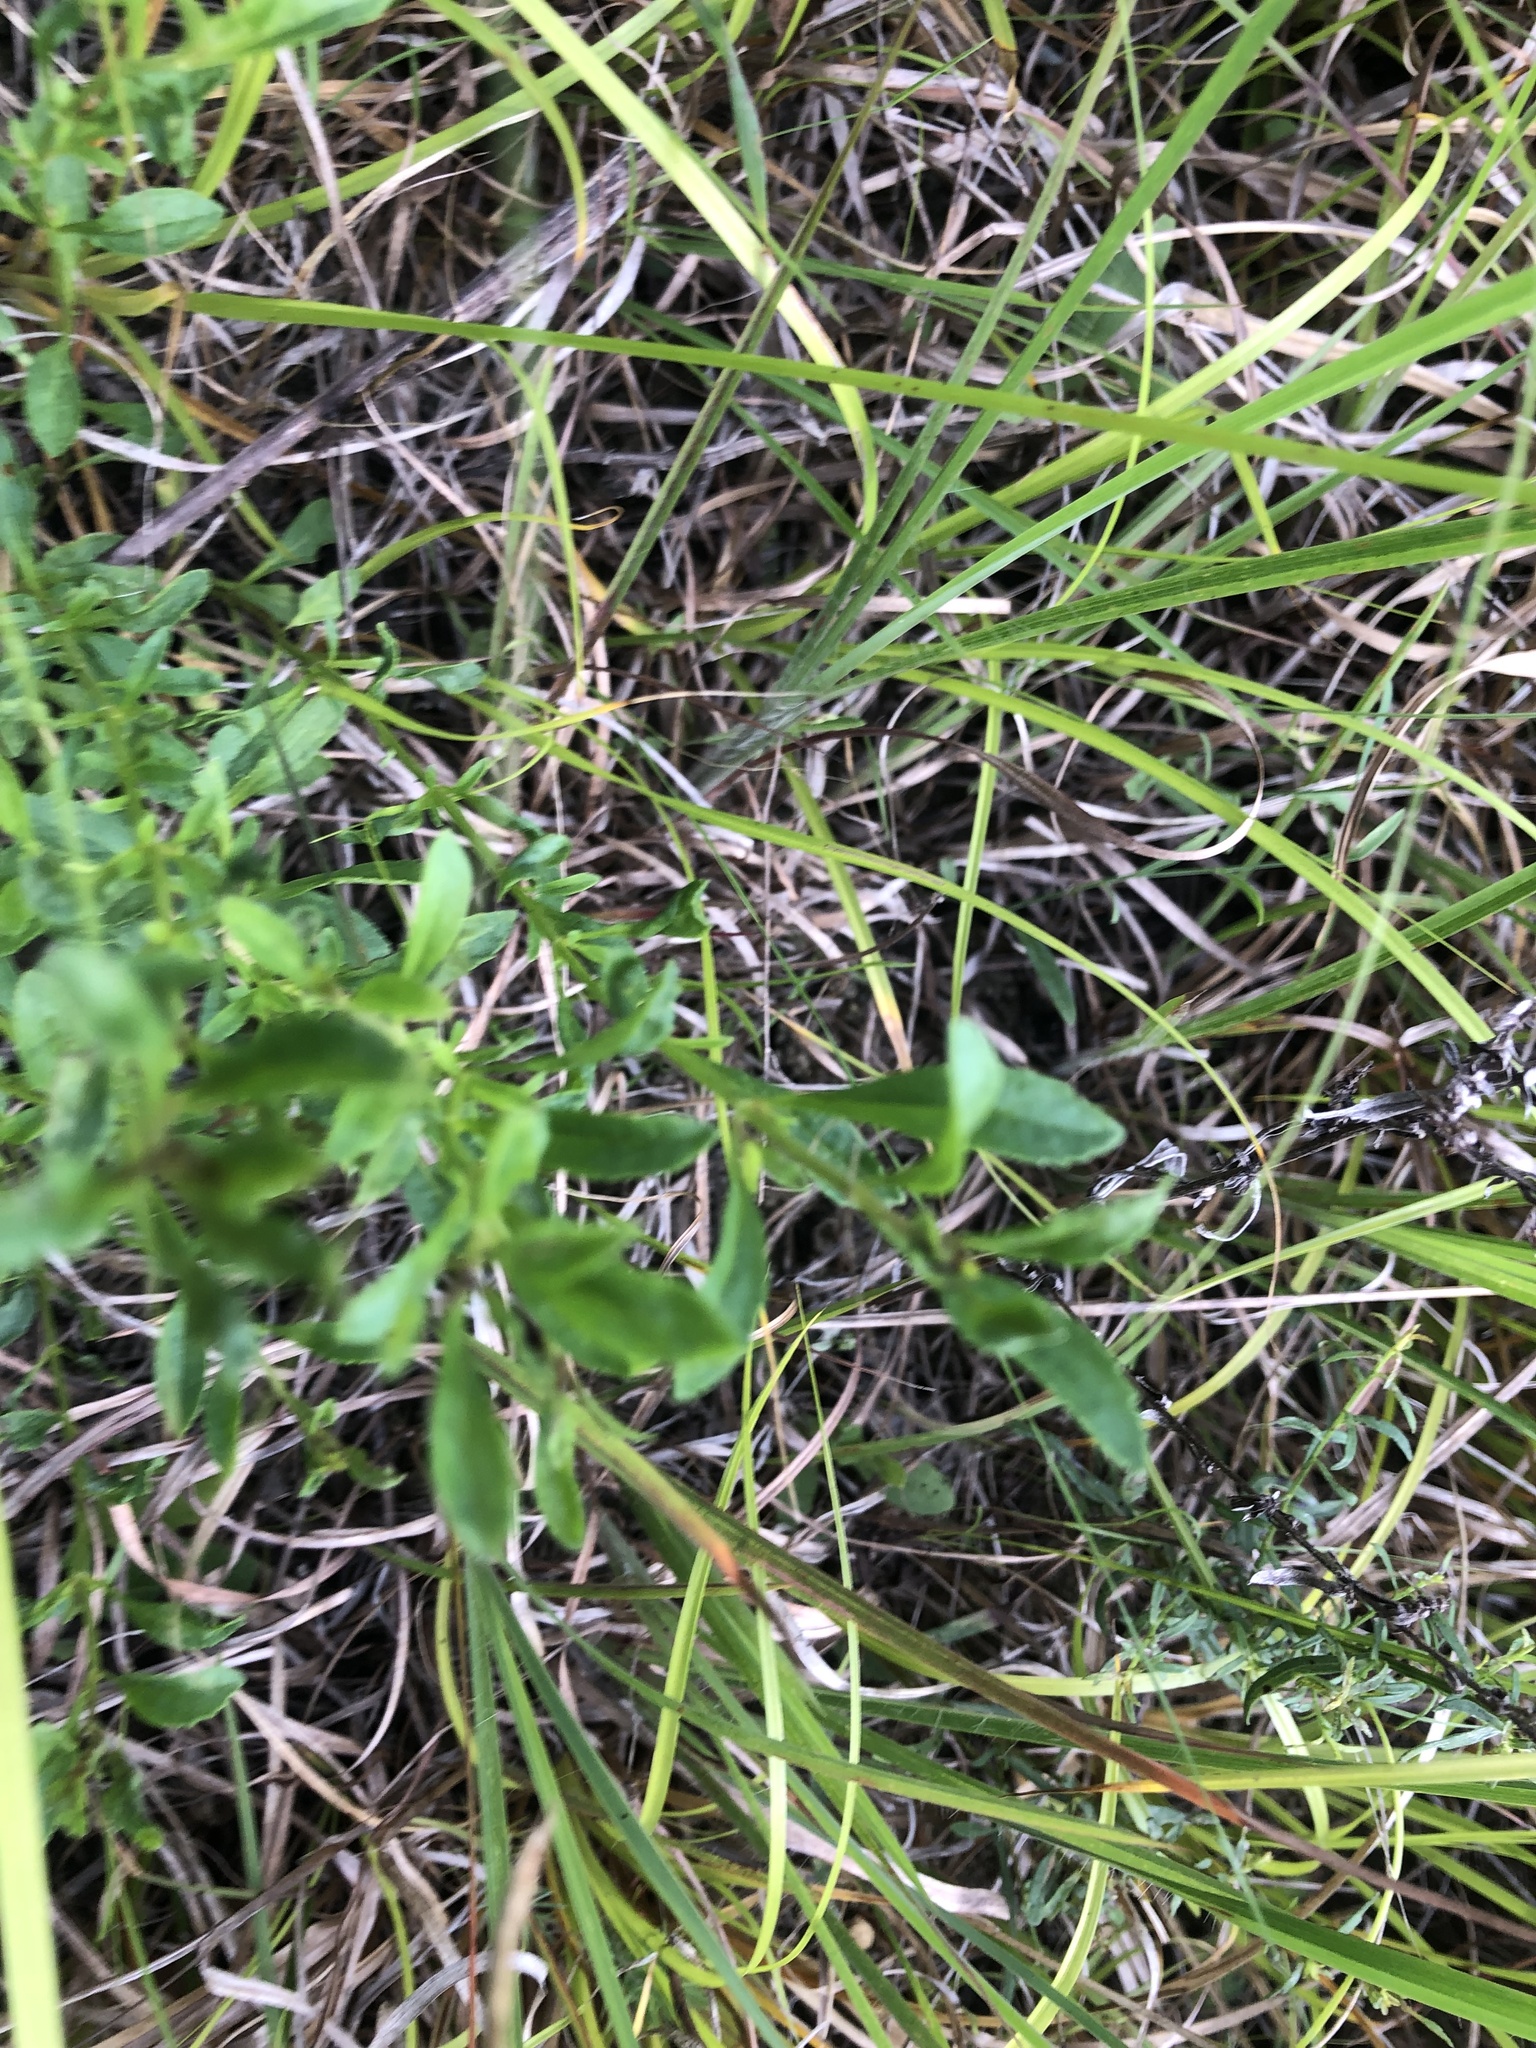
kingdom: Plantae
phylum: Tracheophyta
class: Magnoliopsida
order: Lamiales
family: Plantaginaceae
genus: Mecardonia
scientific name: Mecardonia acuminata
